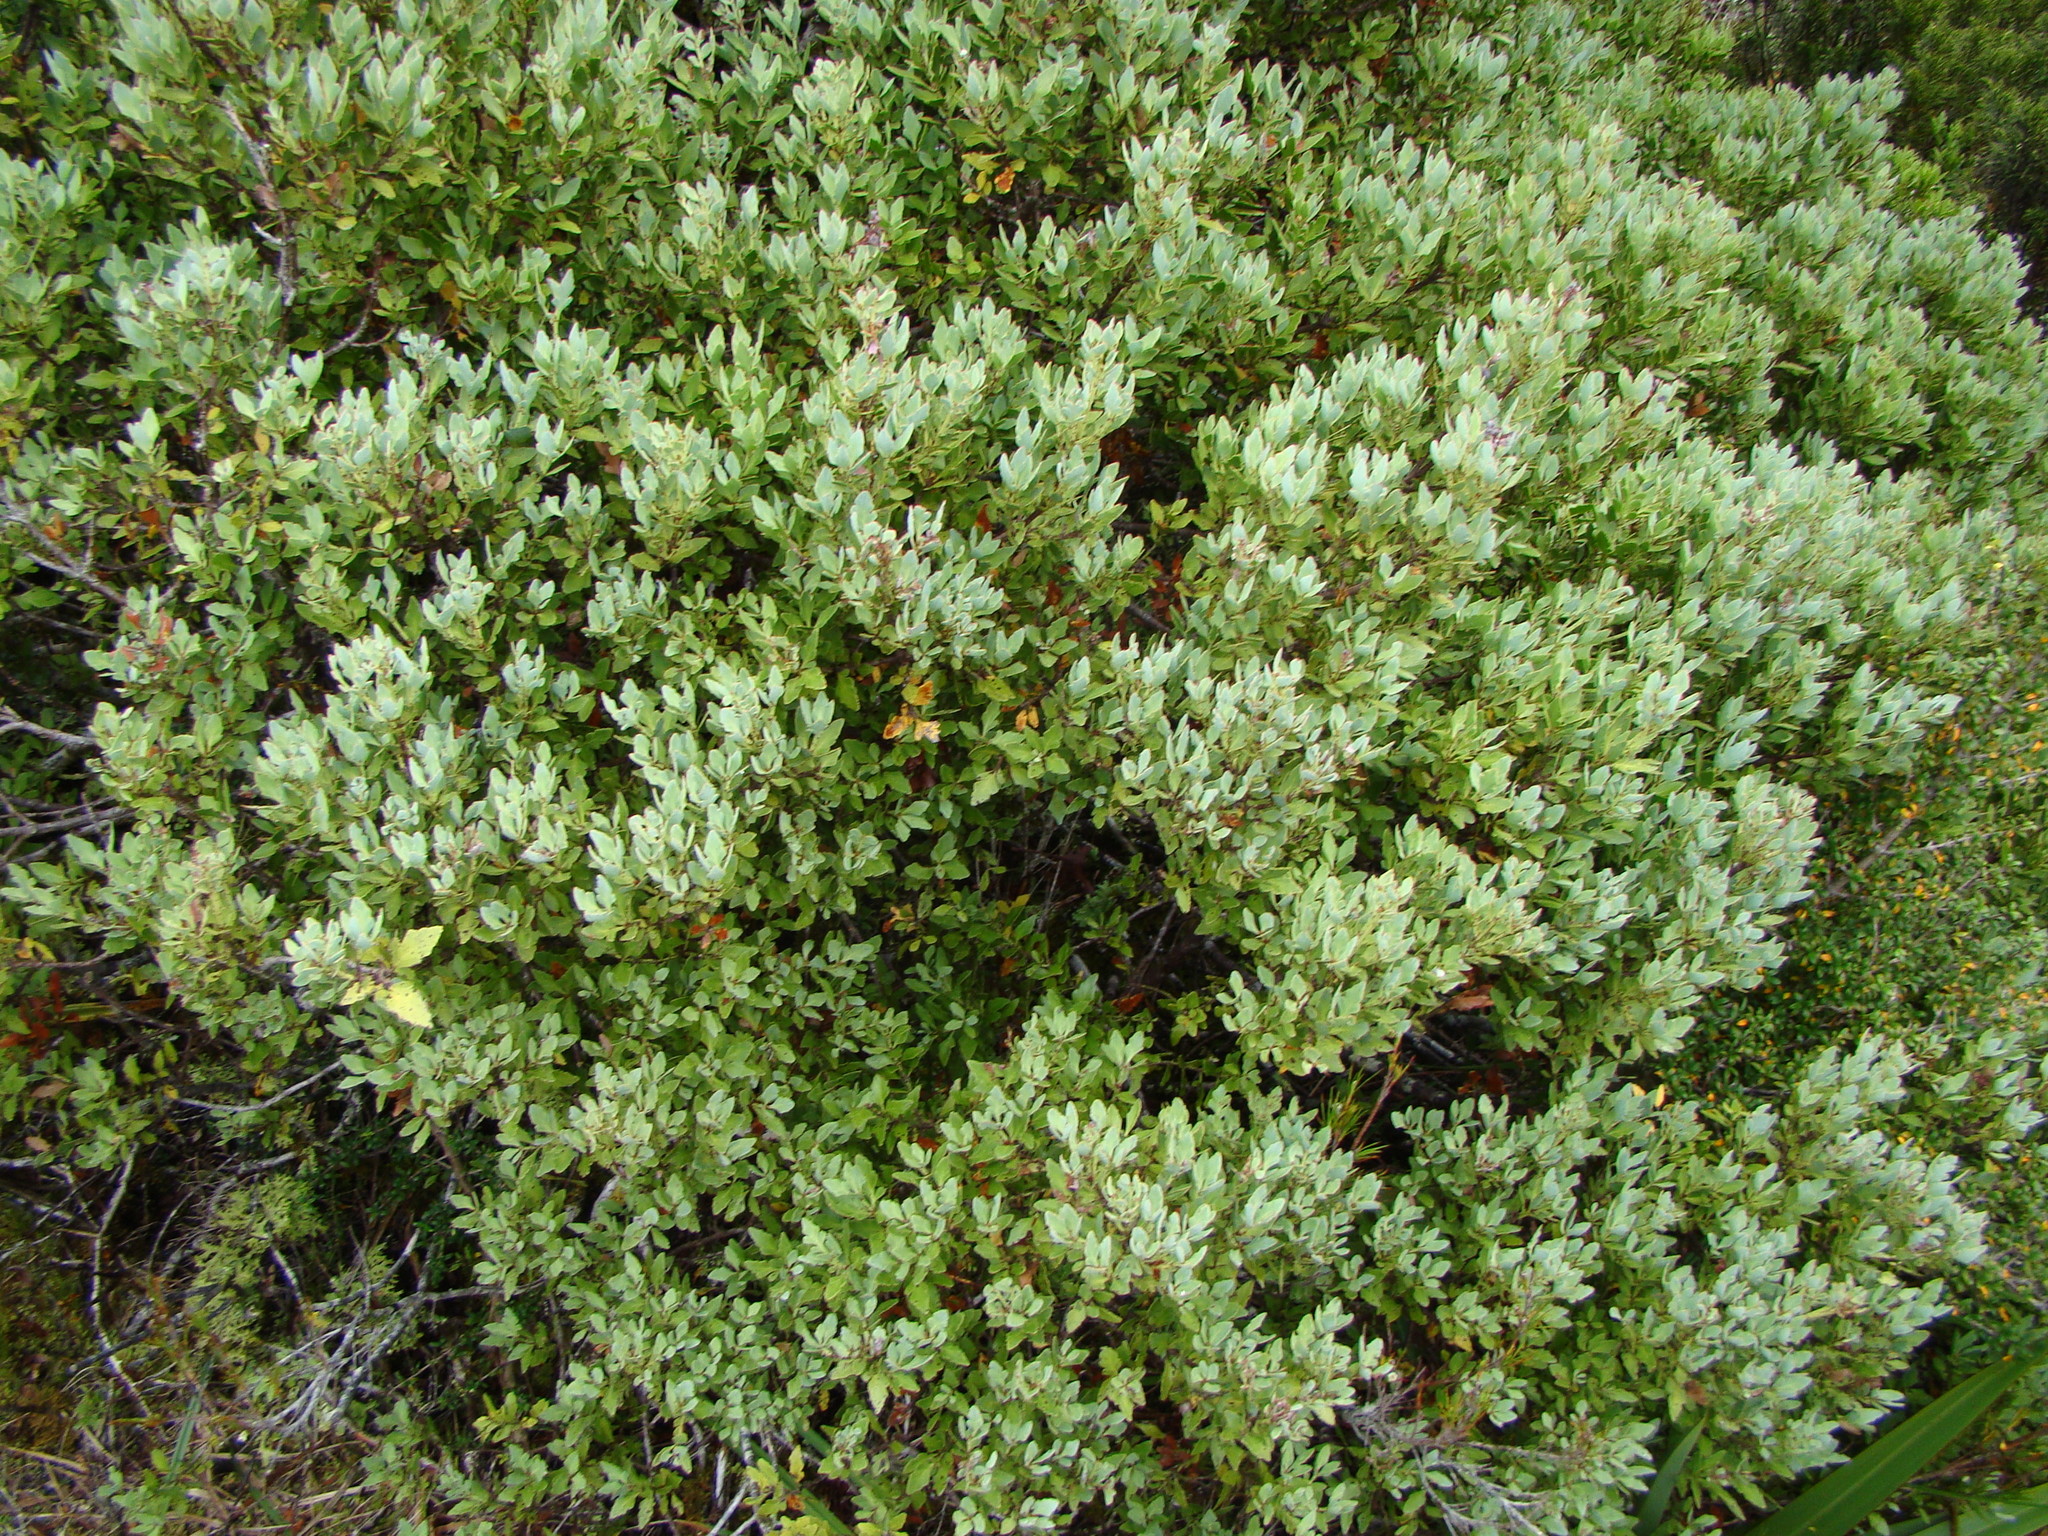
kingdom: Plantae
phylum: Tracheophyta
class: Pinopsida
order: Pinales
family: Phyllocladaceae
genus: Phyllocladus
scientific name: Phyllocladus trichomanoides
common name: Celery pine
